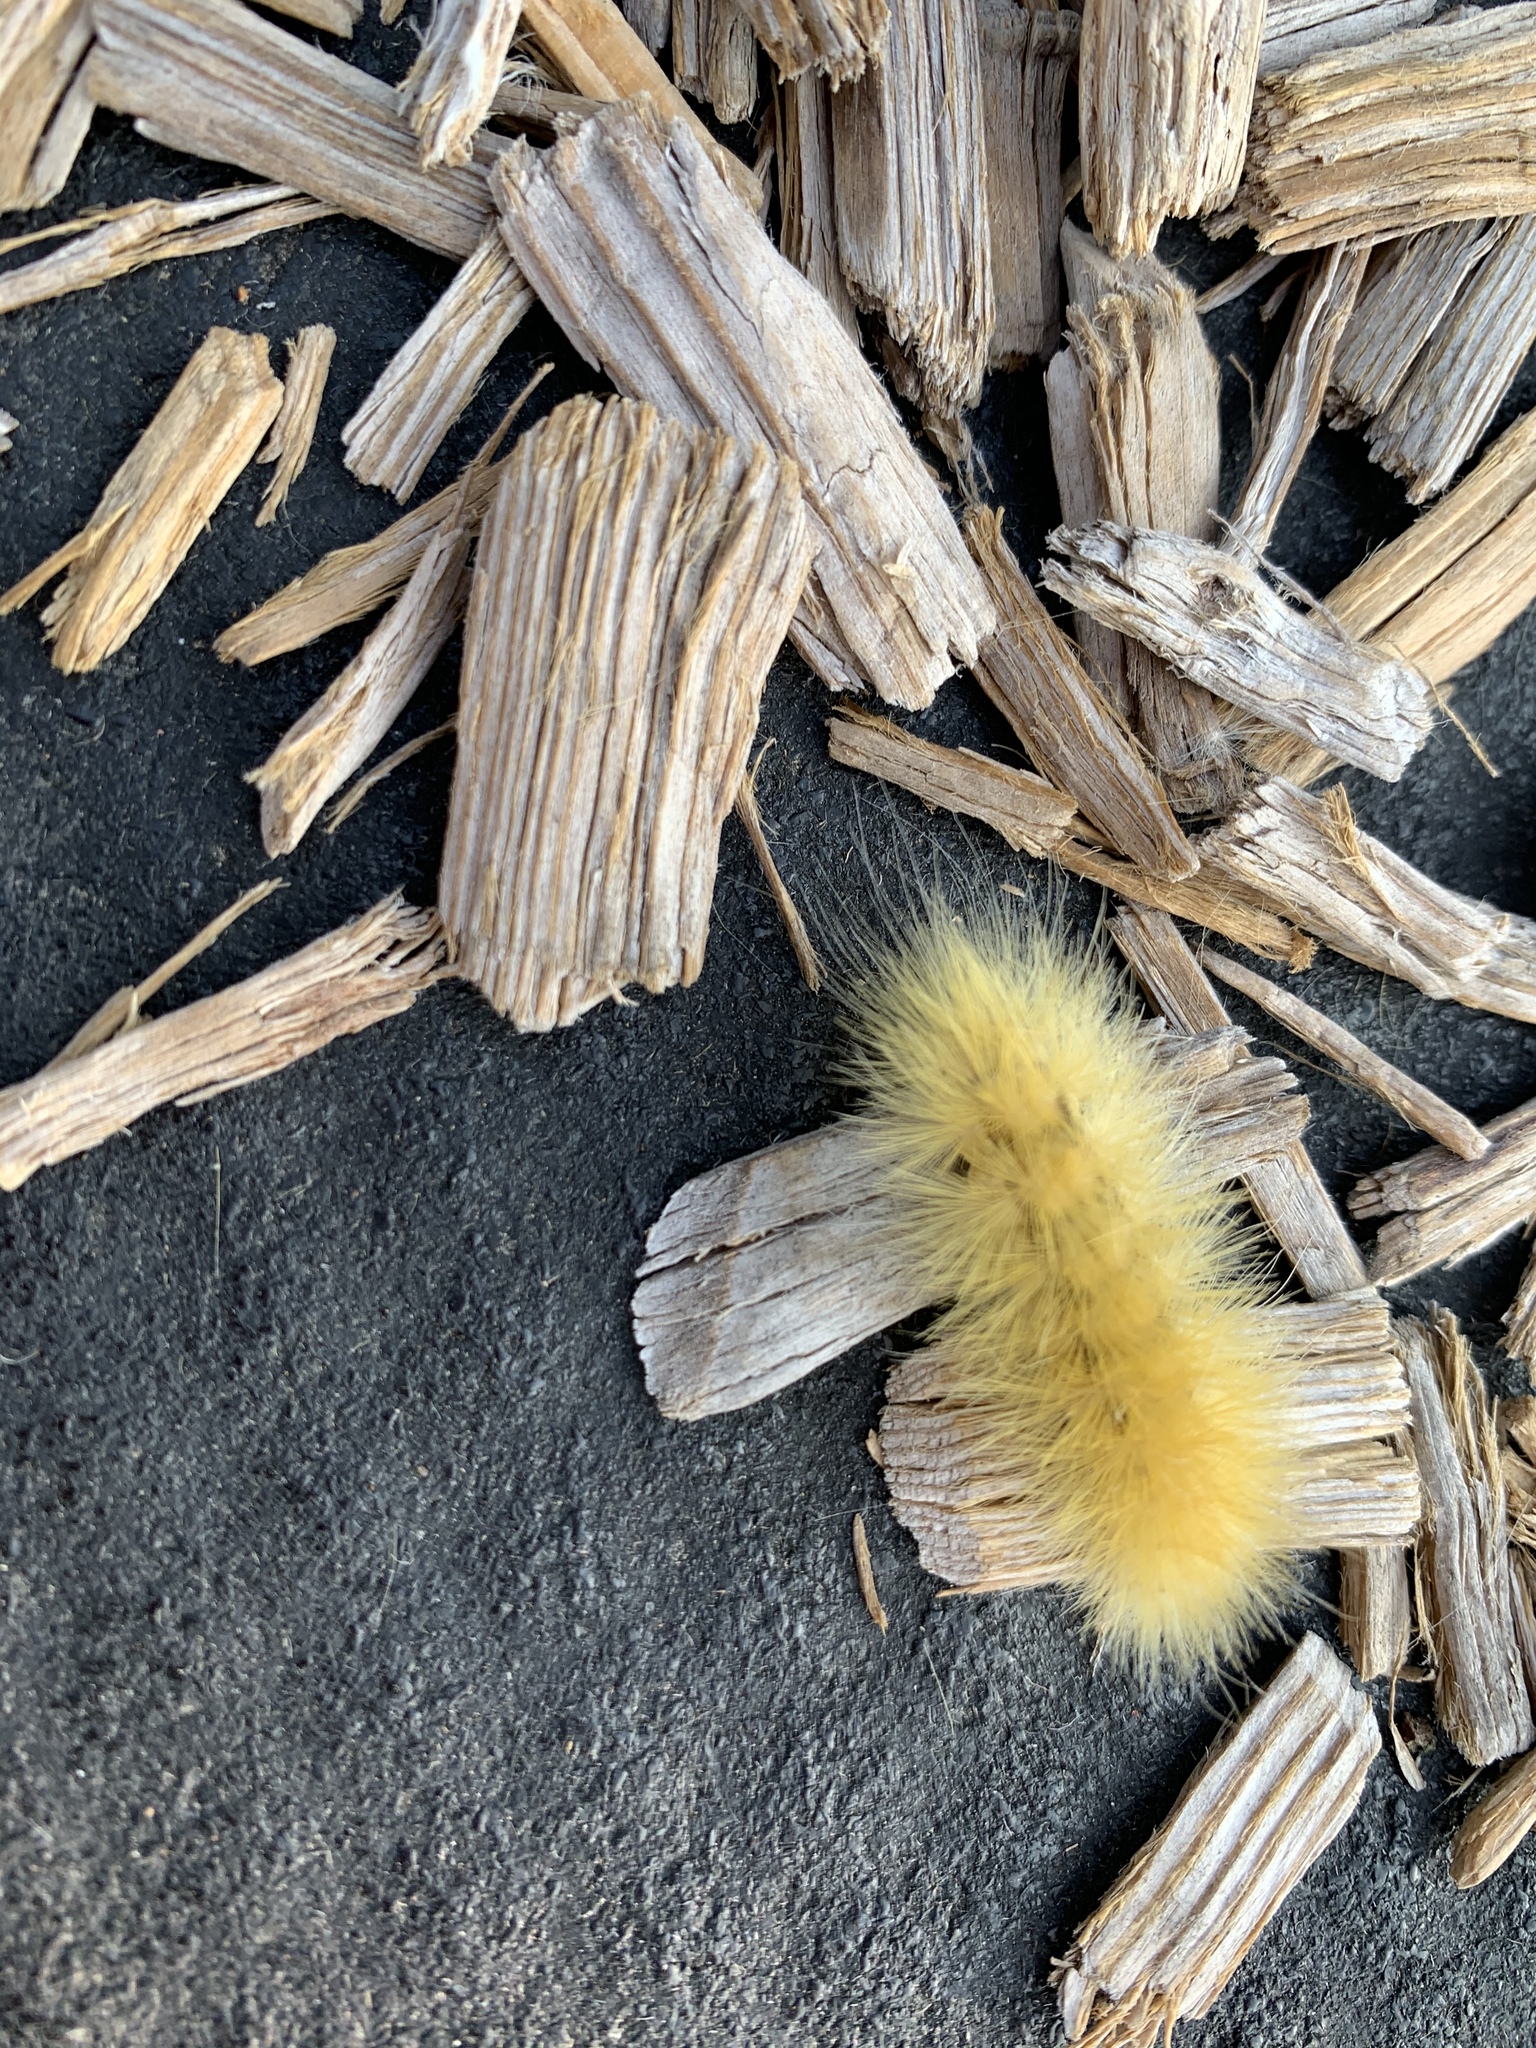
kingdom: Animalia
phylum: Arthropoda
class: Insecta
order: Lepidoptera
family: Erebidae
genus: Spilosoma
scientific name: Spilosoma virginica
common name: Virginia tiger moth
